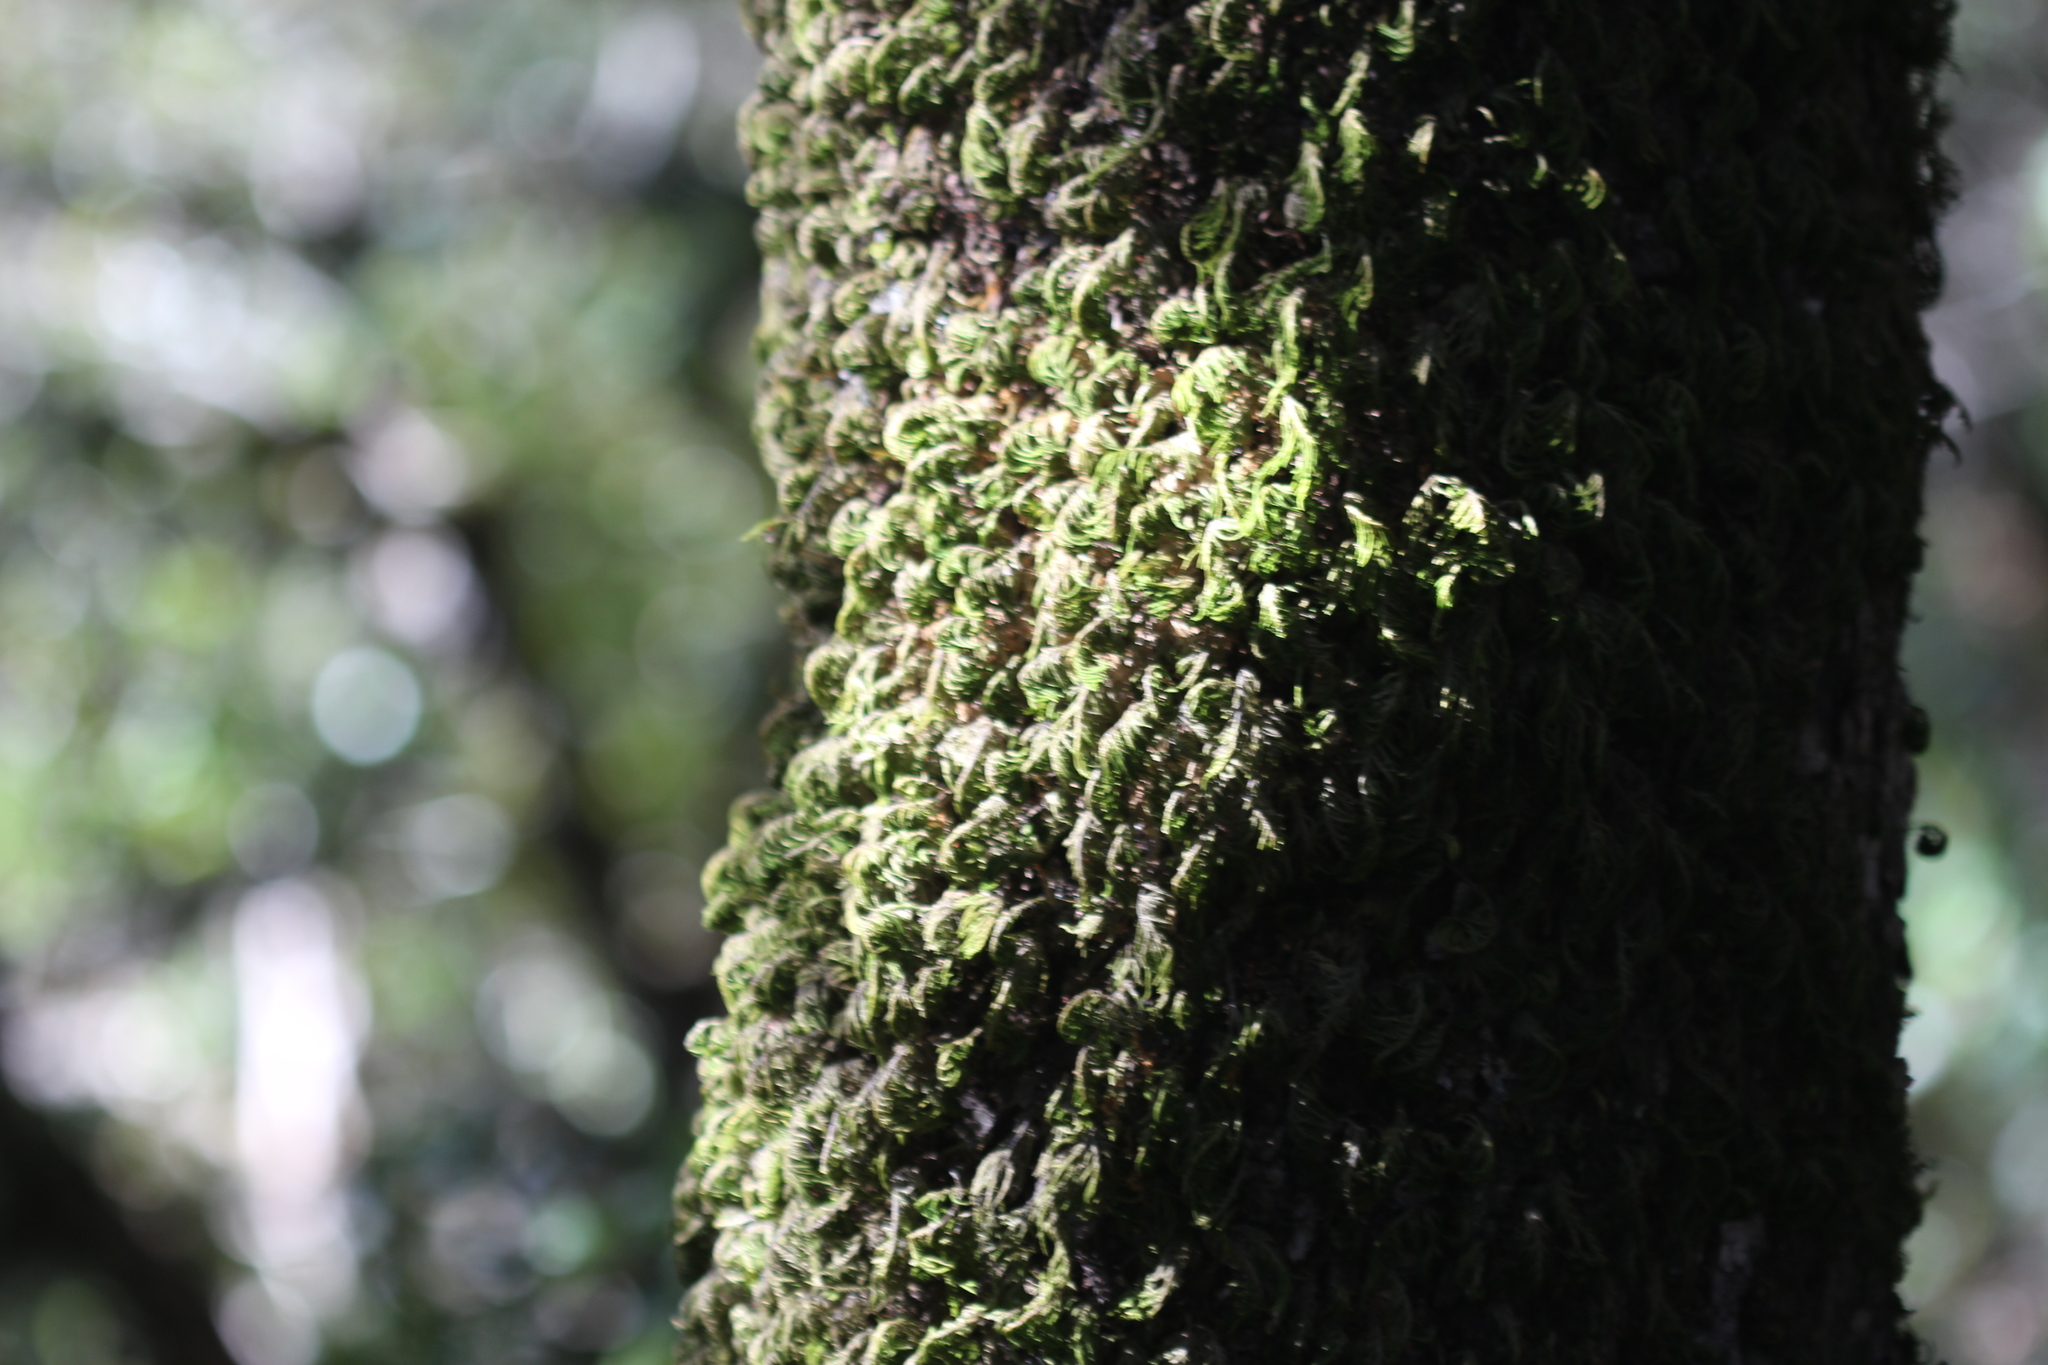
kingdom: Plantae
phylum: Bryophyta
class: Bryopsida
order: Hypnales
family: Cryphaeaceae
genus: Dendroalsia
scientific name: Dendroalsia abietina
